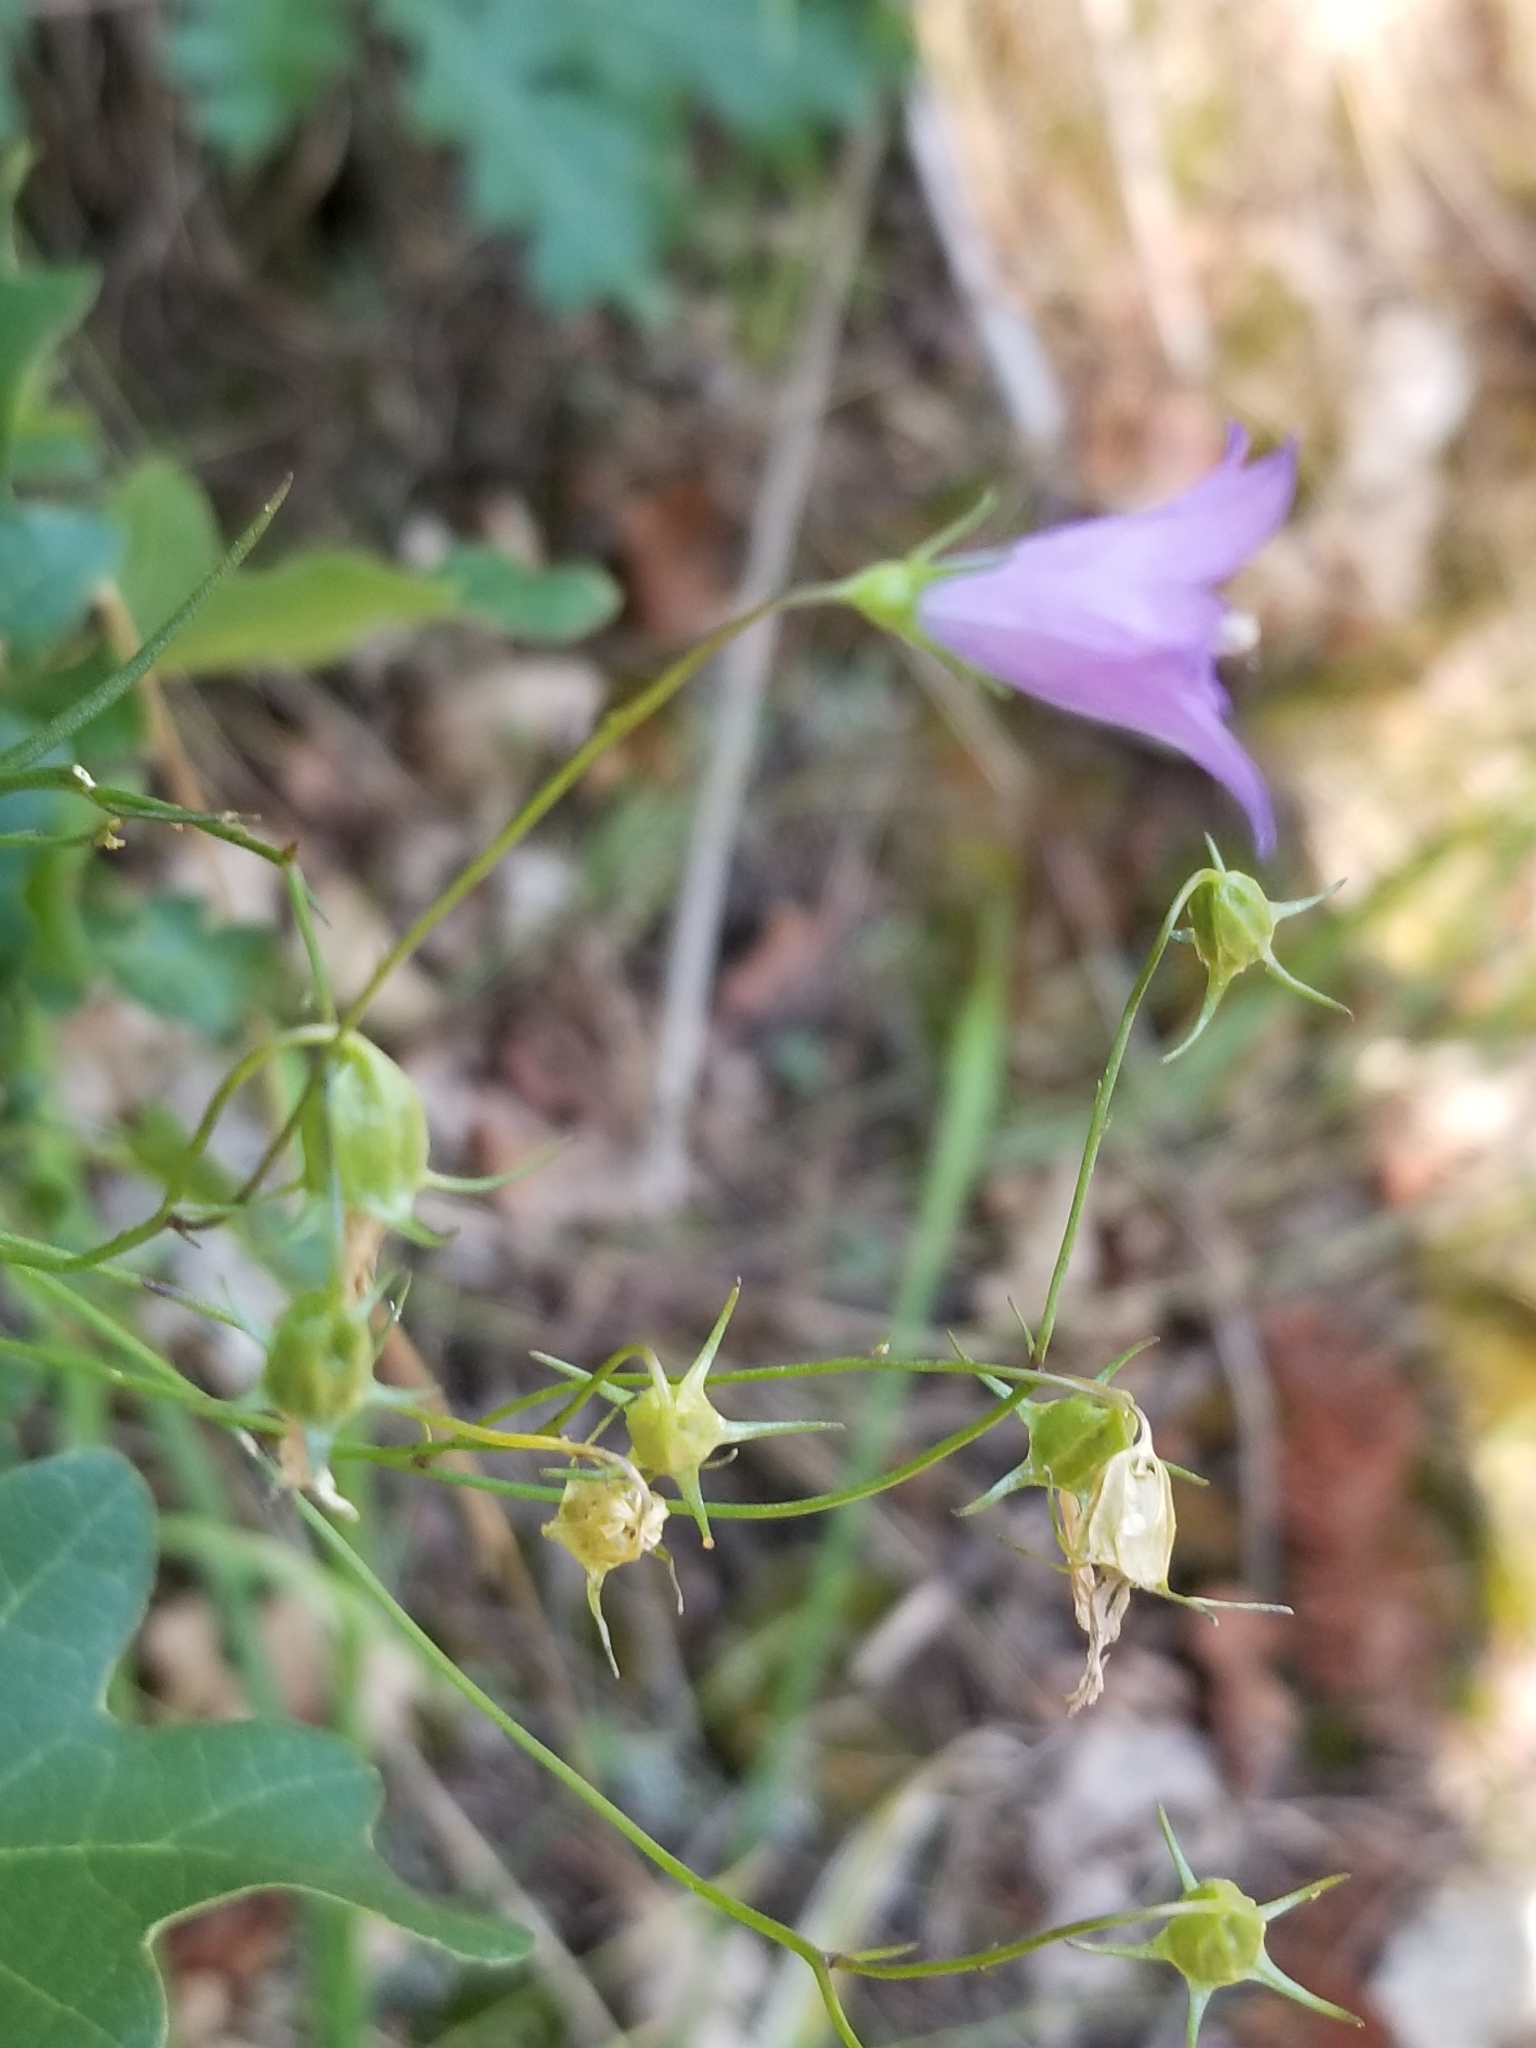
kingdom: Plantae
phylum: Tracheophyta
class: Magnoliopsida
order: Asterales
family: Campanulaceae
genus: Campanula
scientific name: Campanula petiolata
